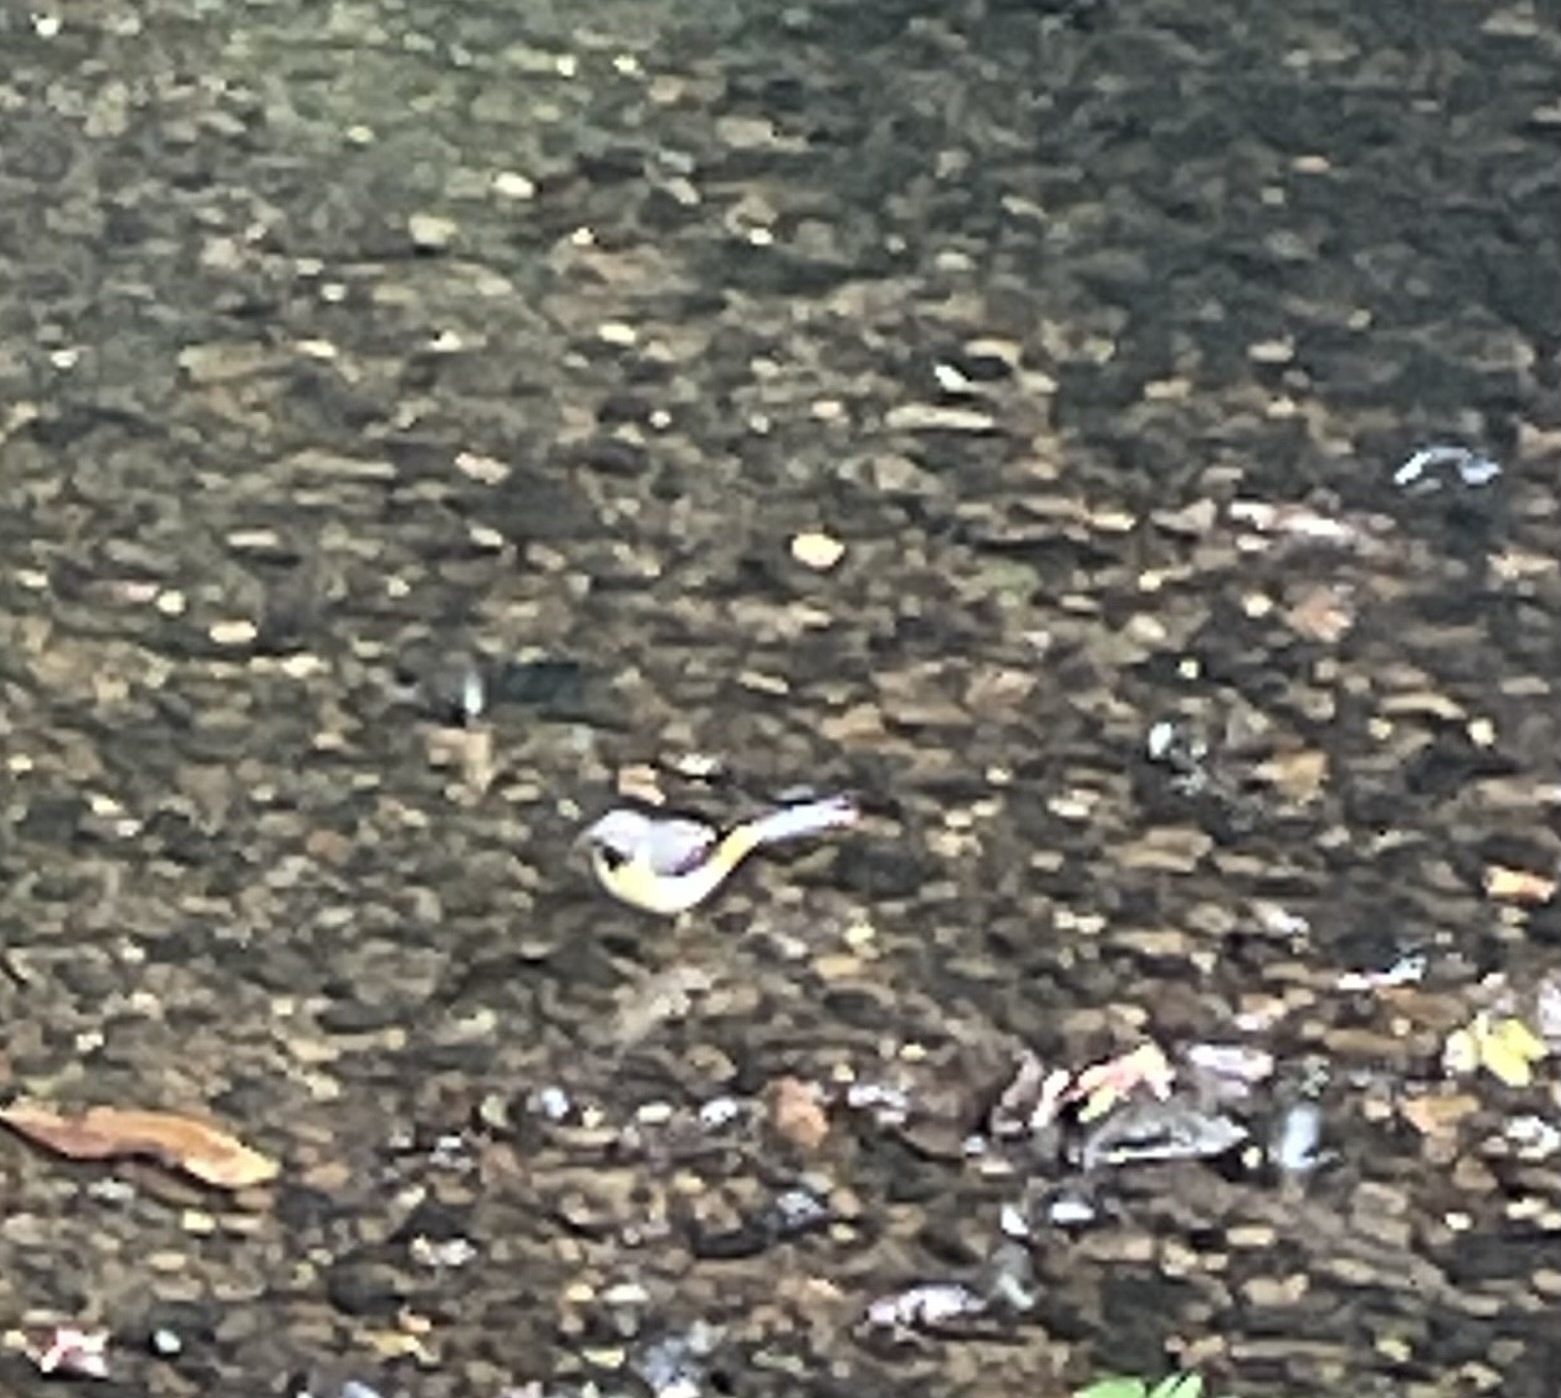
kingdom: Animalia
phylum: Chordata
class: Aves
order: Passeriformes
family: Motacillidae
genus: Motacilla
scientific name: Motacilla cinerea
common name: Grey wagtail
